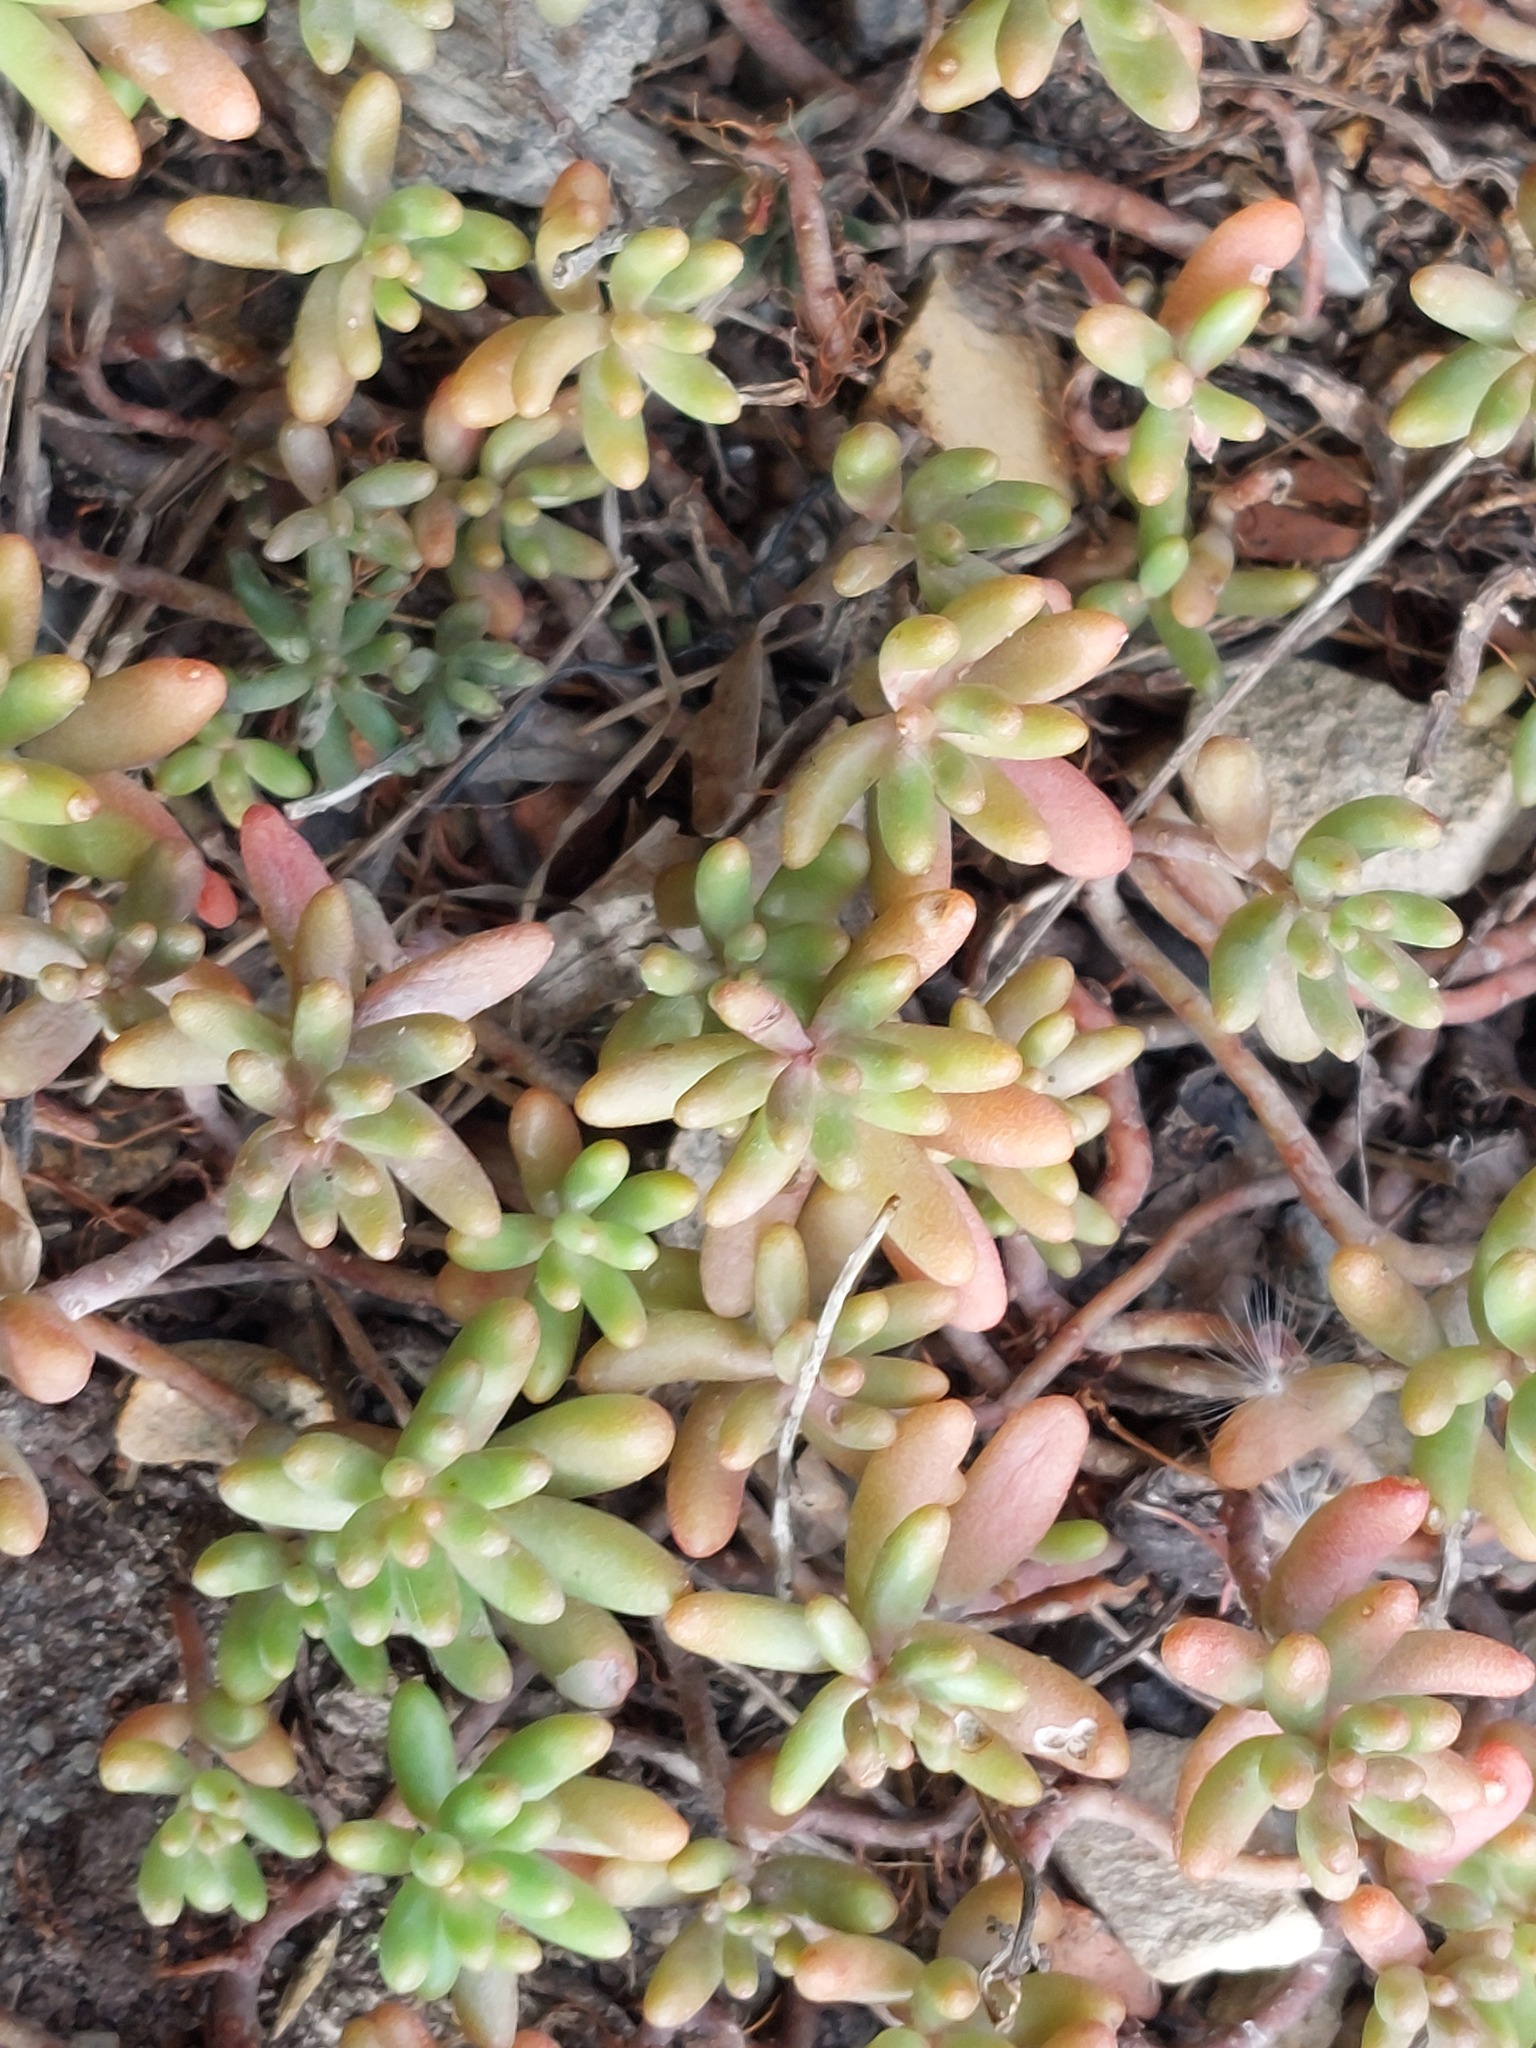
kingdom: Plantae
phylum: Tracheophyta
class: Magnoliopsida
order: Saxifragales
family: Crassulaceae
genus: Sedum
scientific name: Sedum album
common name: White stonecrop
